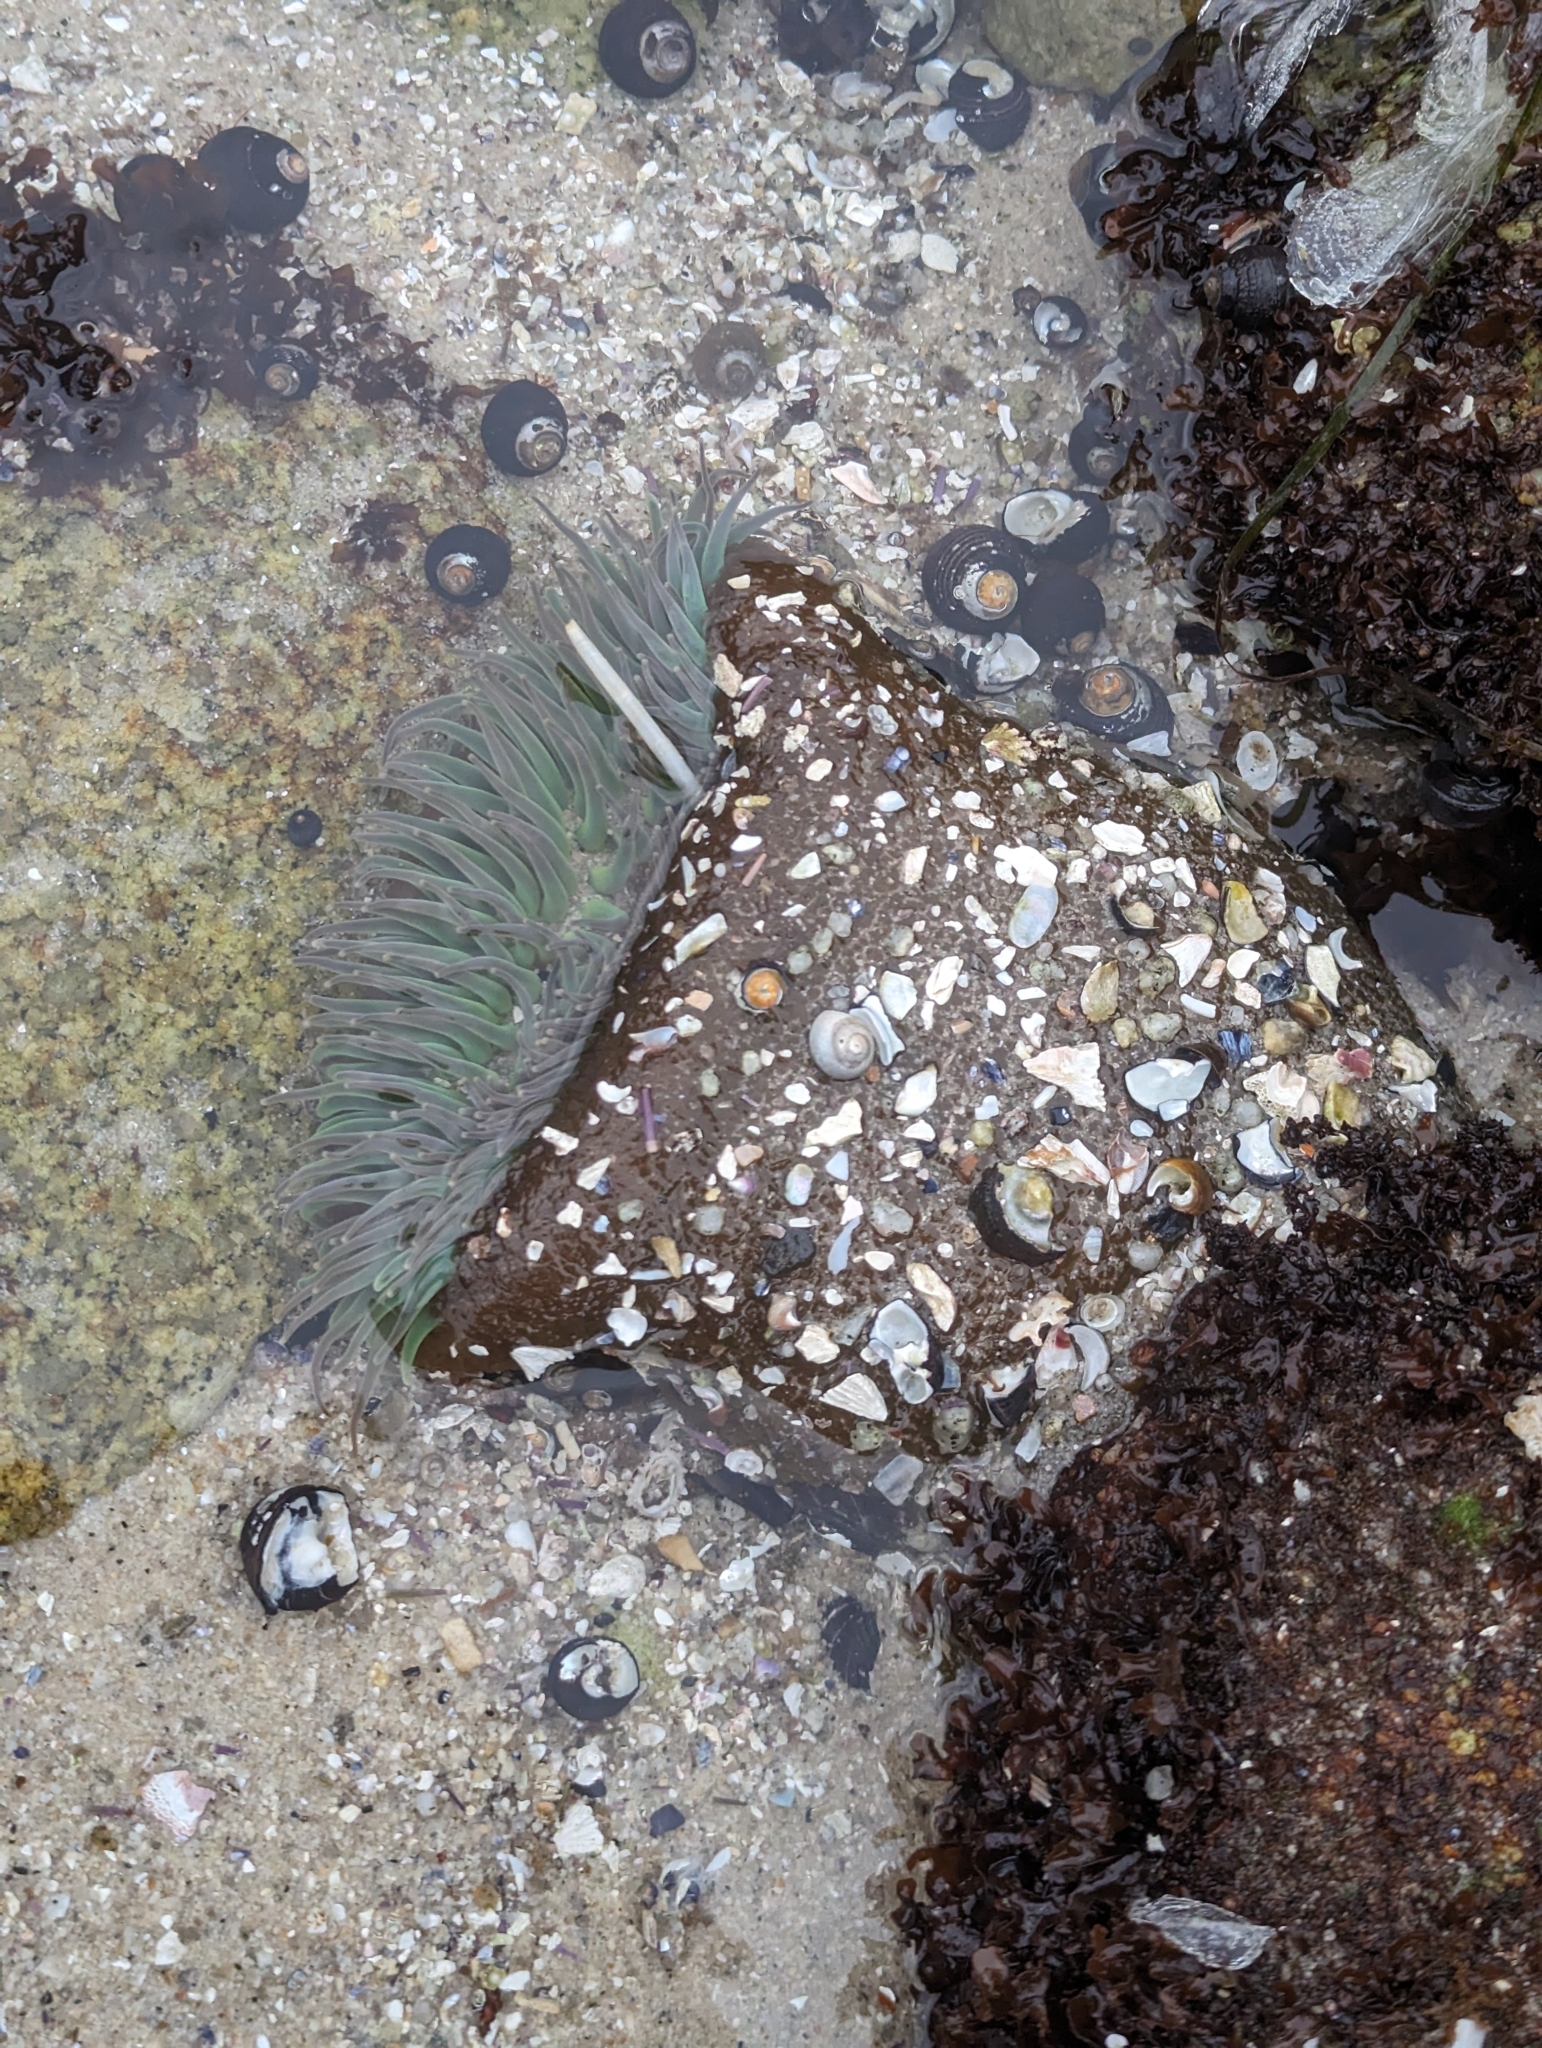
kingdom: Animalia
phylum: Cnidaria
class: Anthozoa
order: Actiniaria
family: Actiniidae
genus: Anthopleura
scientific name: Anthopleura xanthogrammica
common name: Giant green anemone
